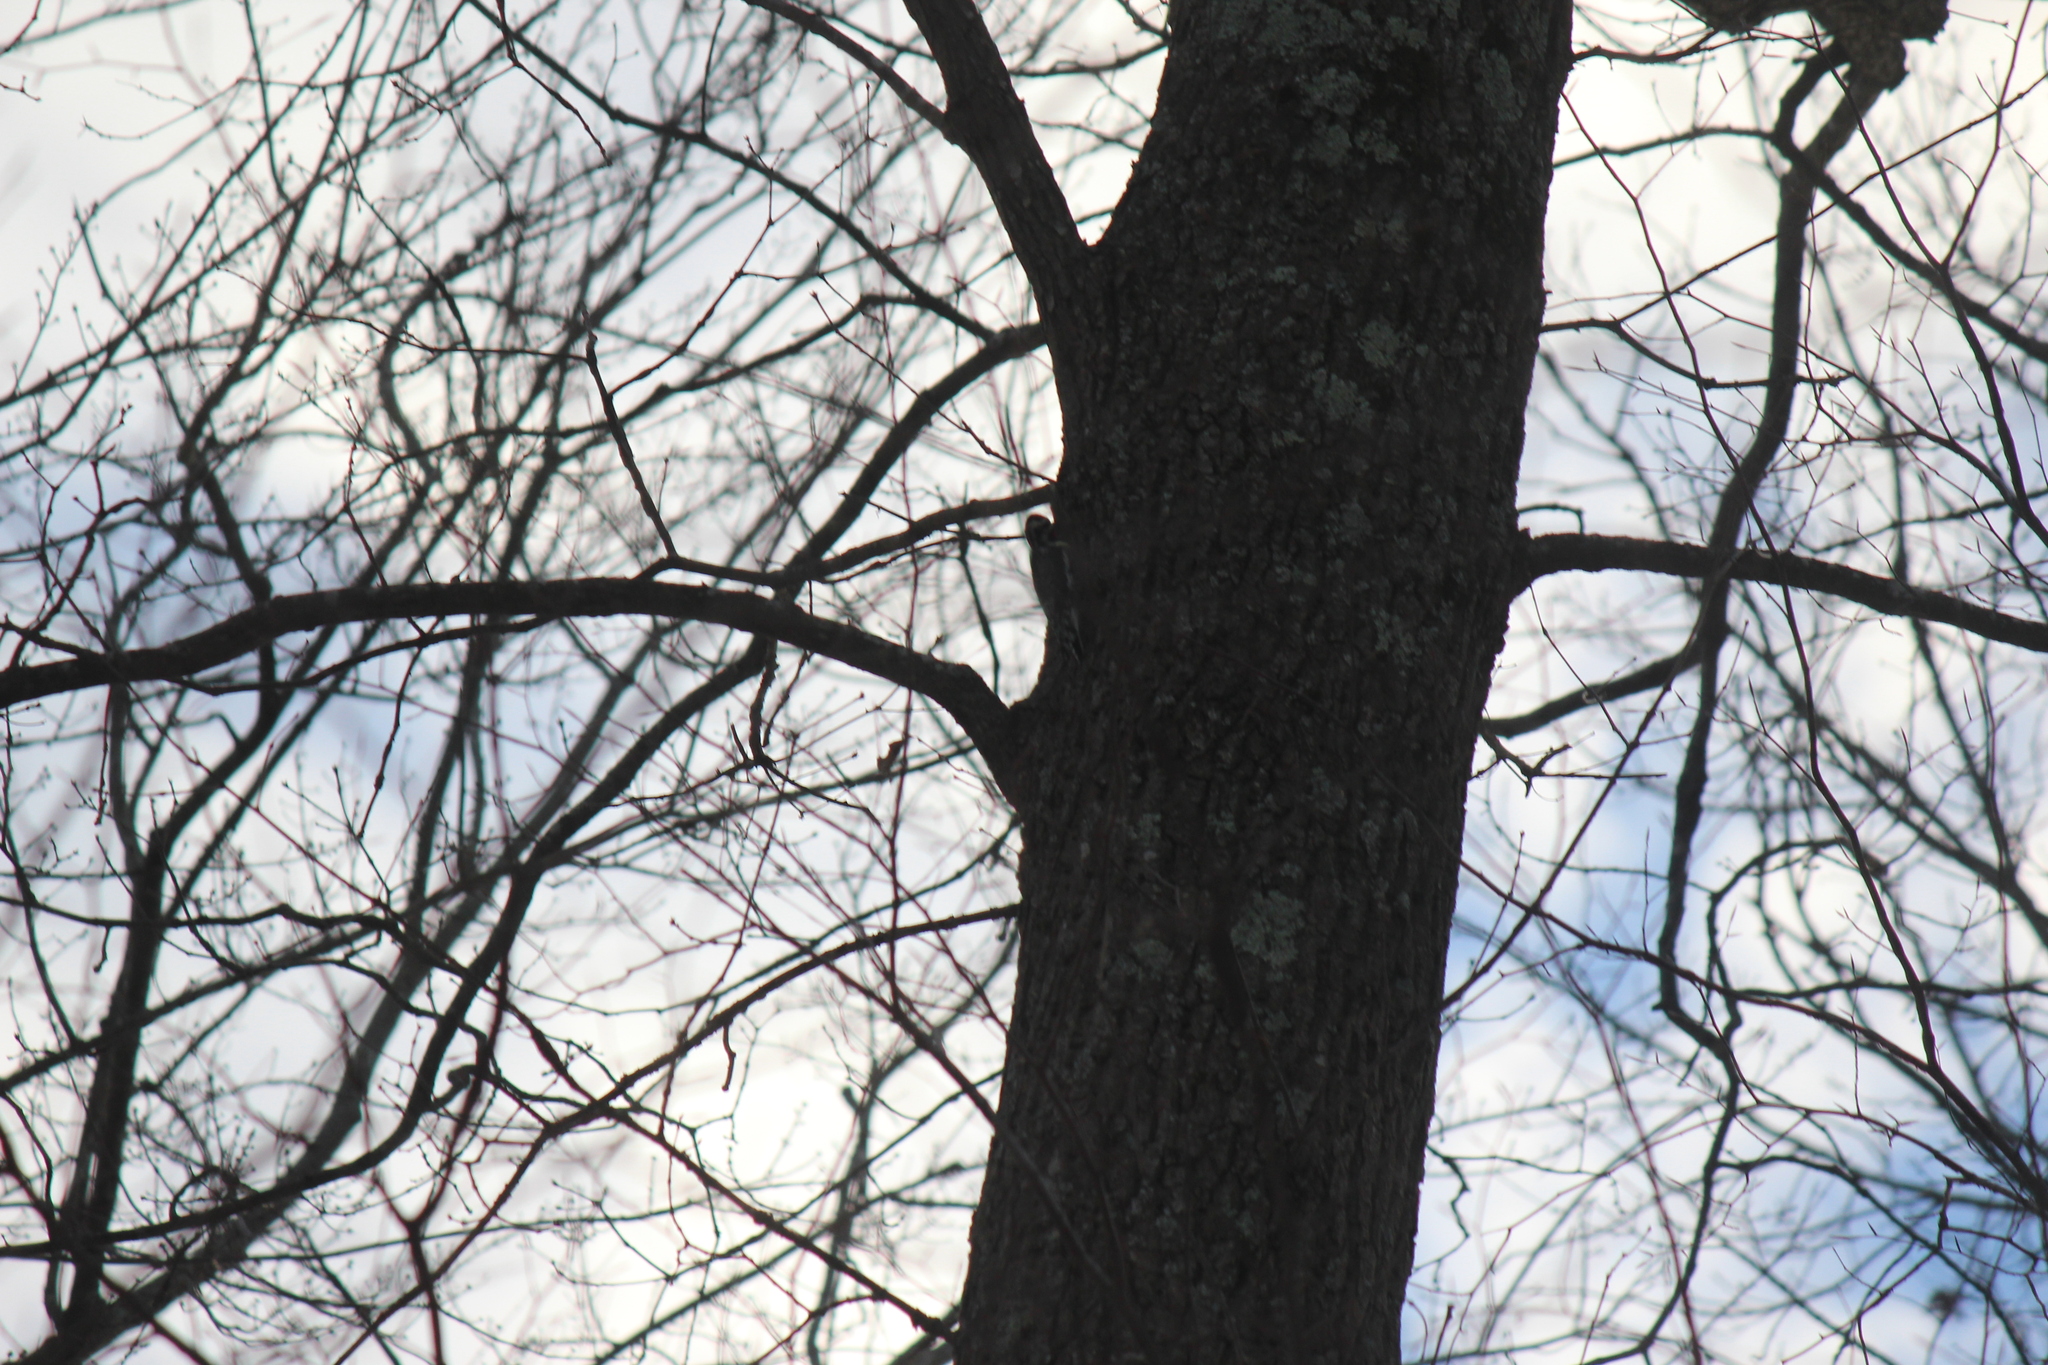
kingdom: Animalia
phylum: Chordata
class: Aves
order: Piciformes
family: Picidae
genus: Sphyrapicus
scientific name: Sphyrapicus varius
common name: Yellow-bellied sapsucker
